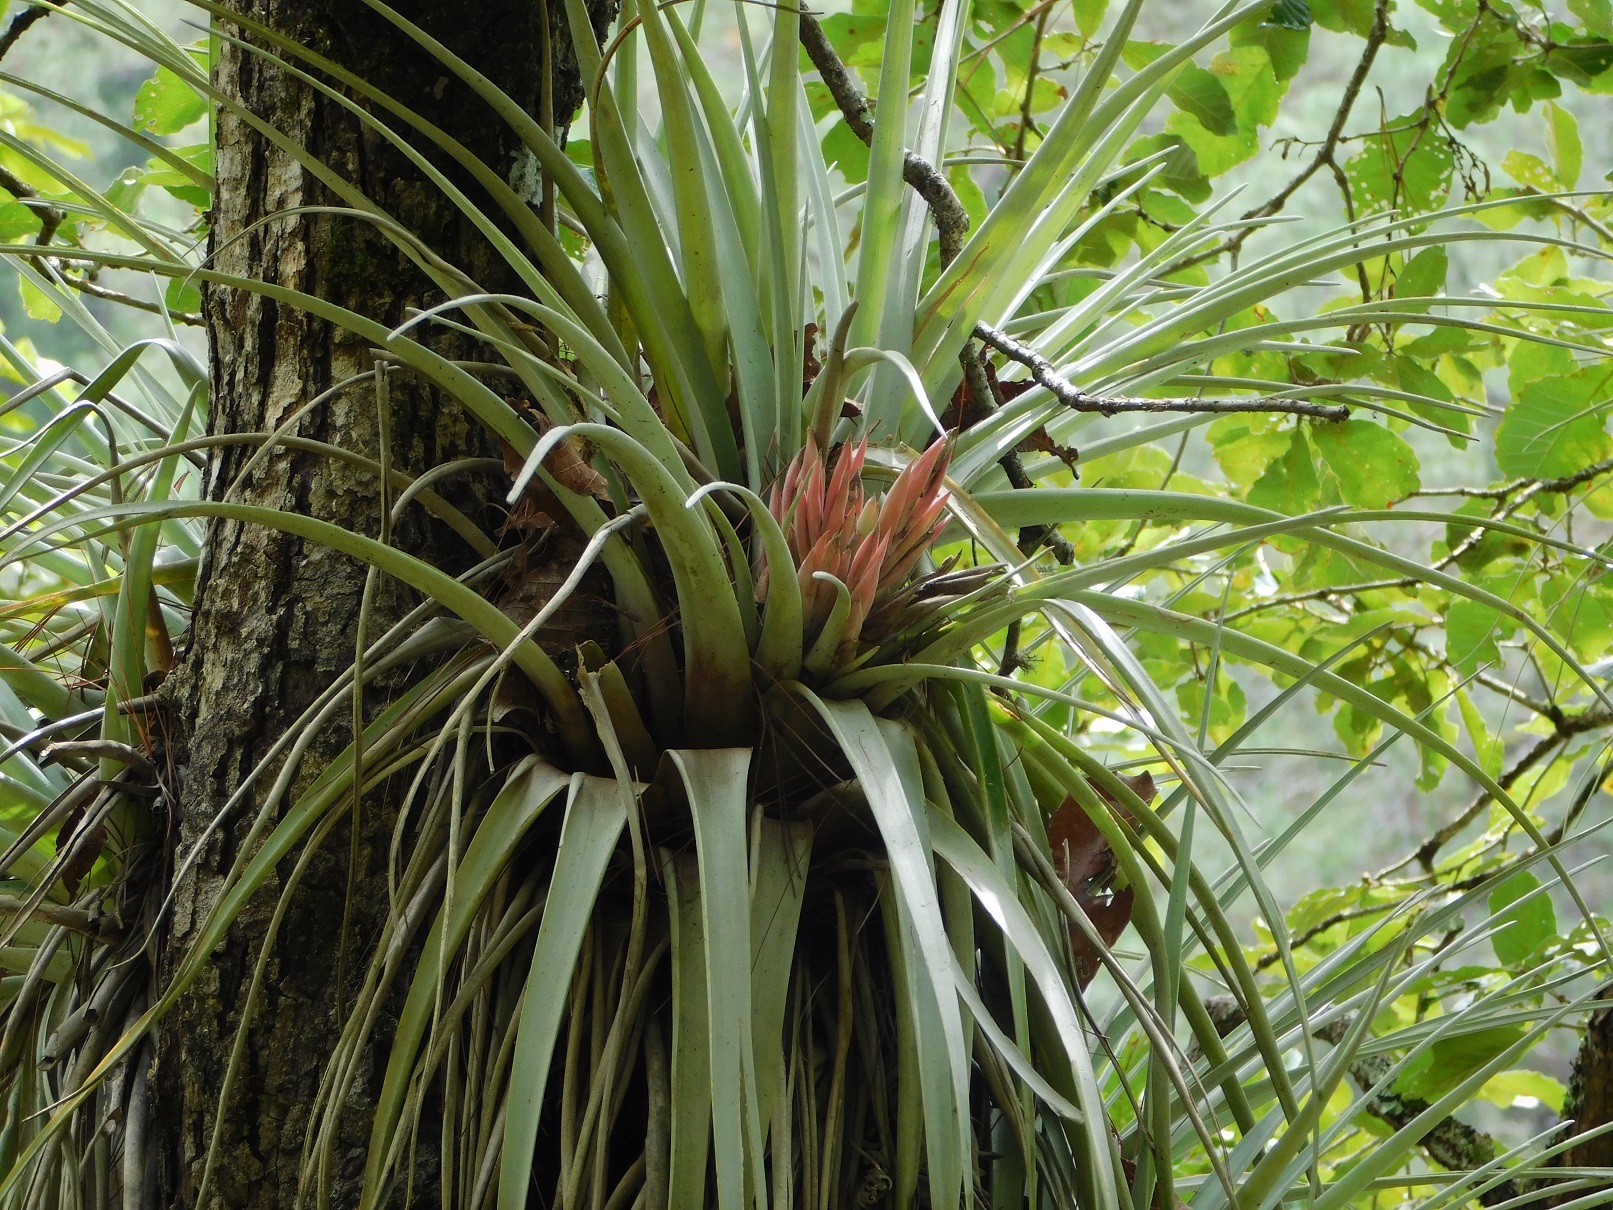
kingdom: Plantae
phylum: Tracheophyta
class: Liliopsida
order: Poales
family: Bromeliaceae
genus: Tillandsia
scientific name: Tillandsia carlsoniae
